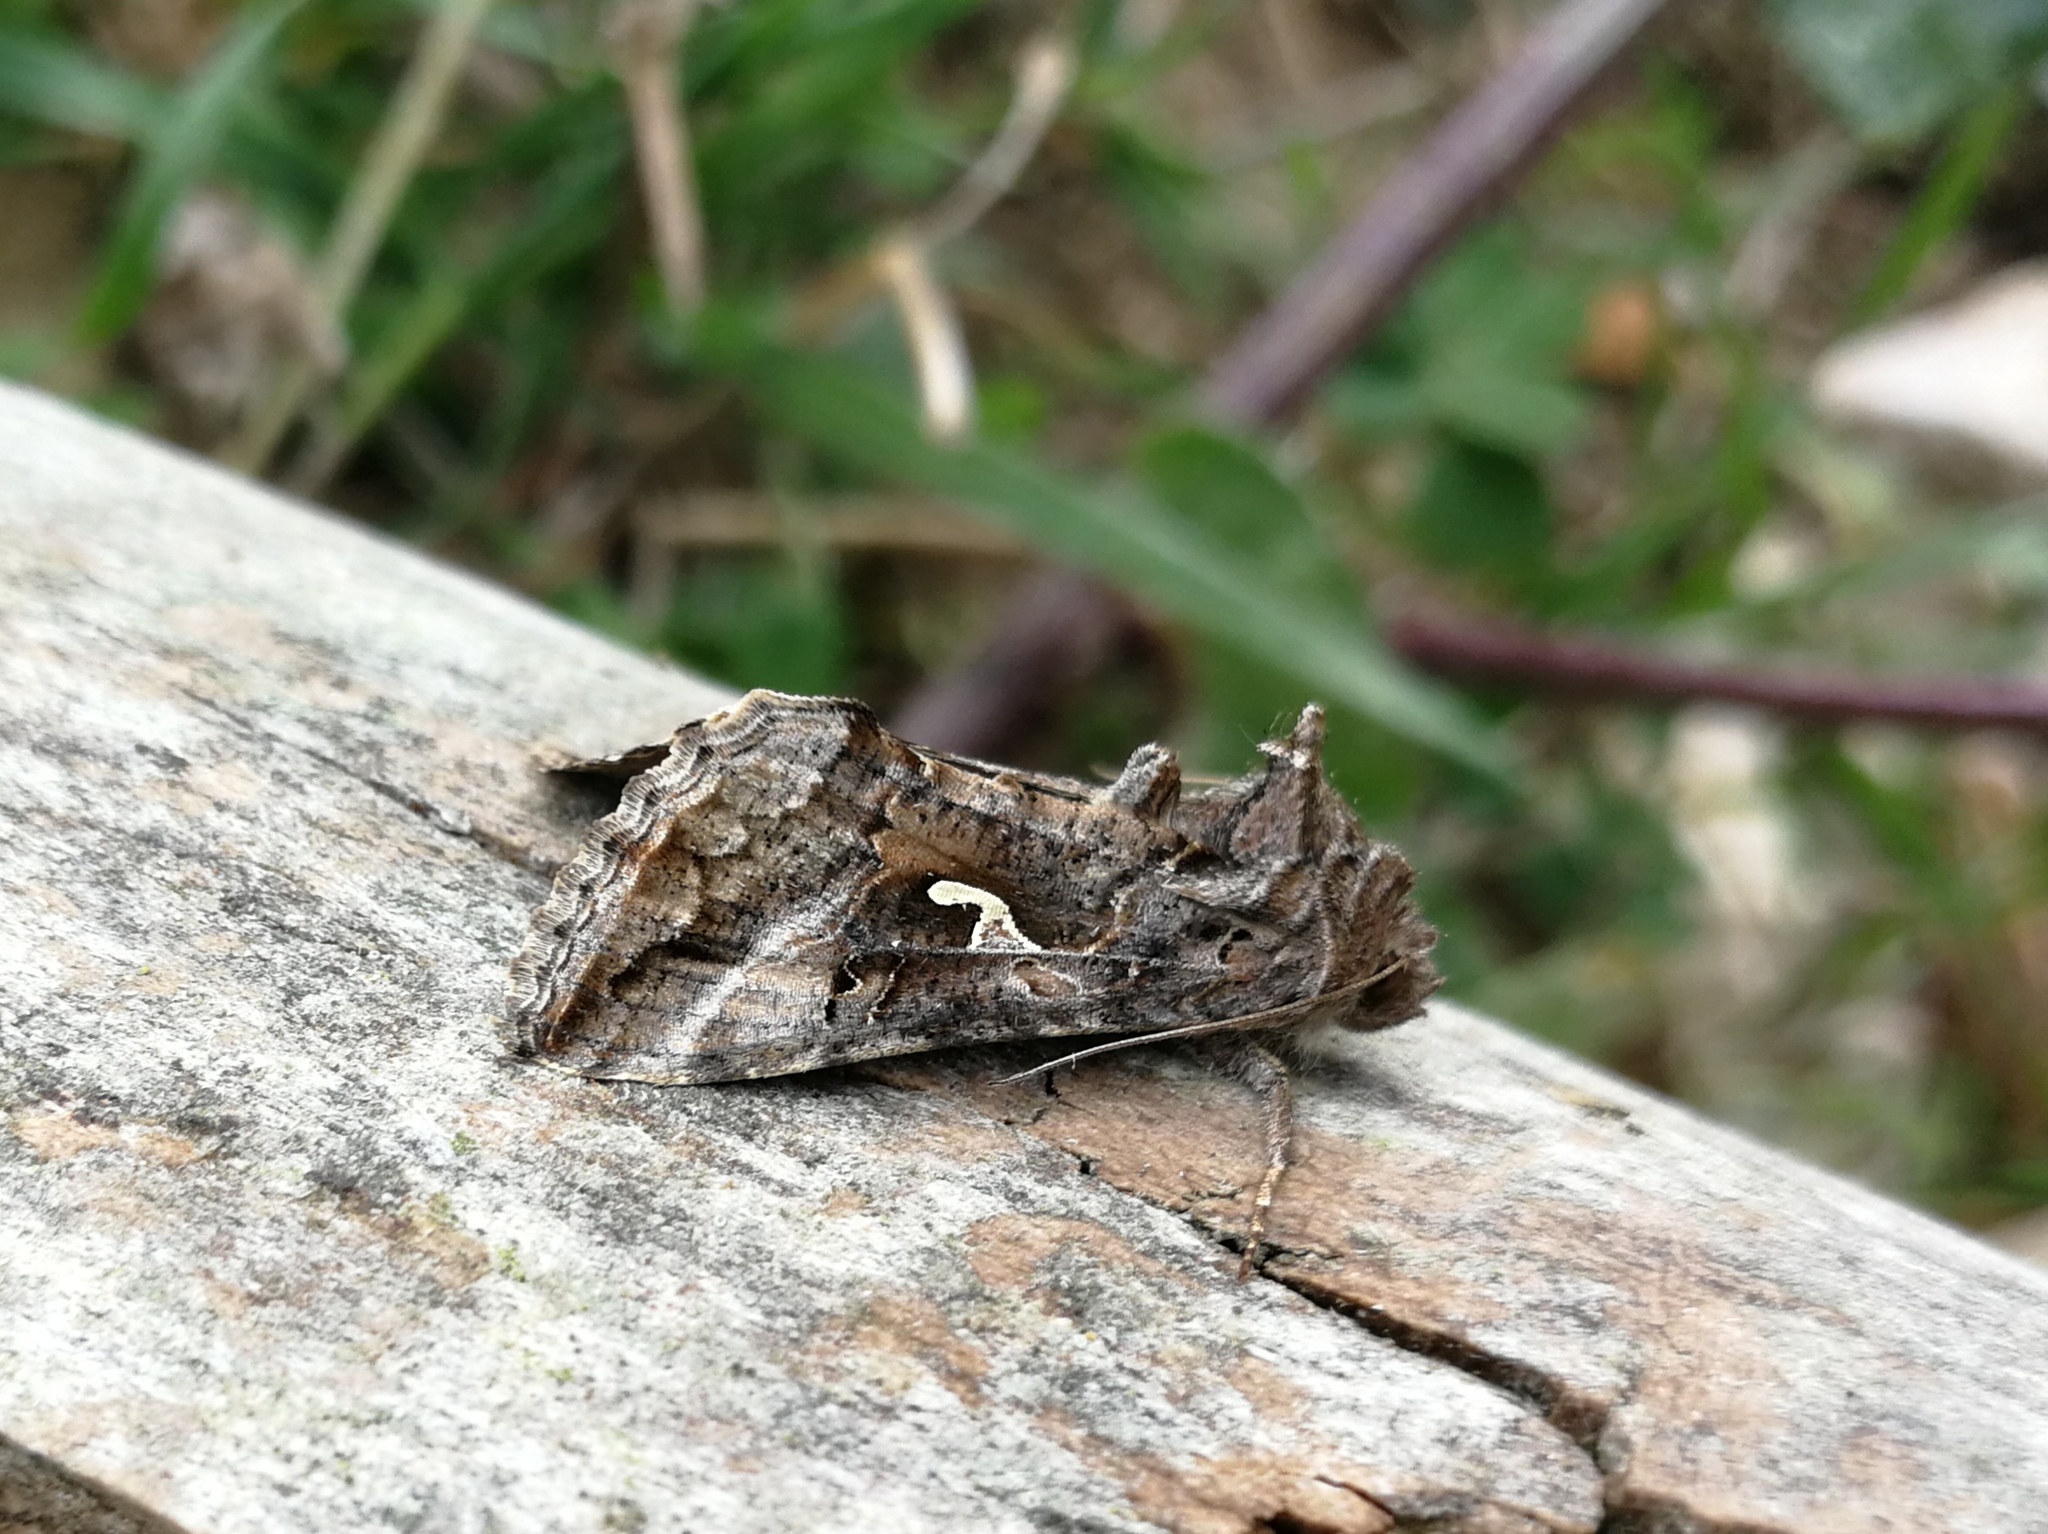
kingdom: Animalia
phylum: Arthropoda
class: Insecta
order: Lepidoptera
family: Noctuidae
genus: Autographa
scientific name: Autographa gamma
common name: Silver y
